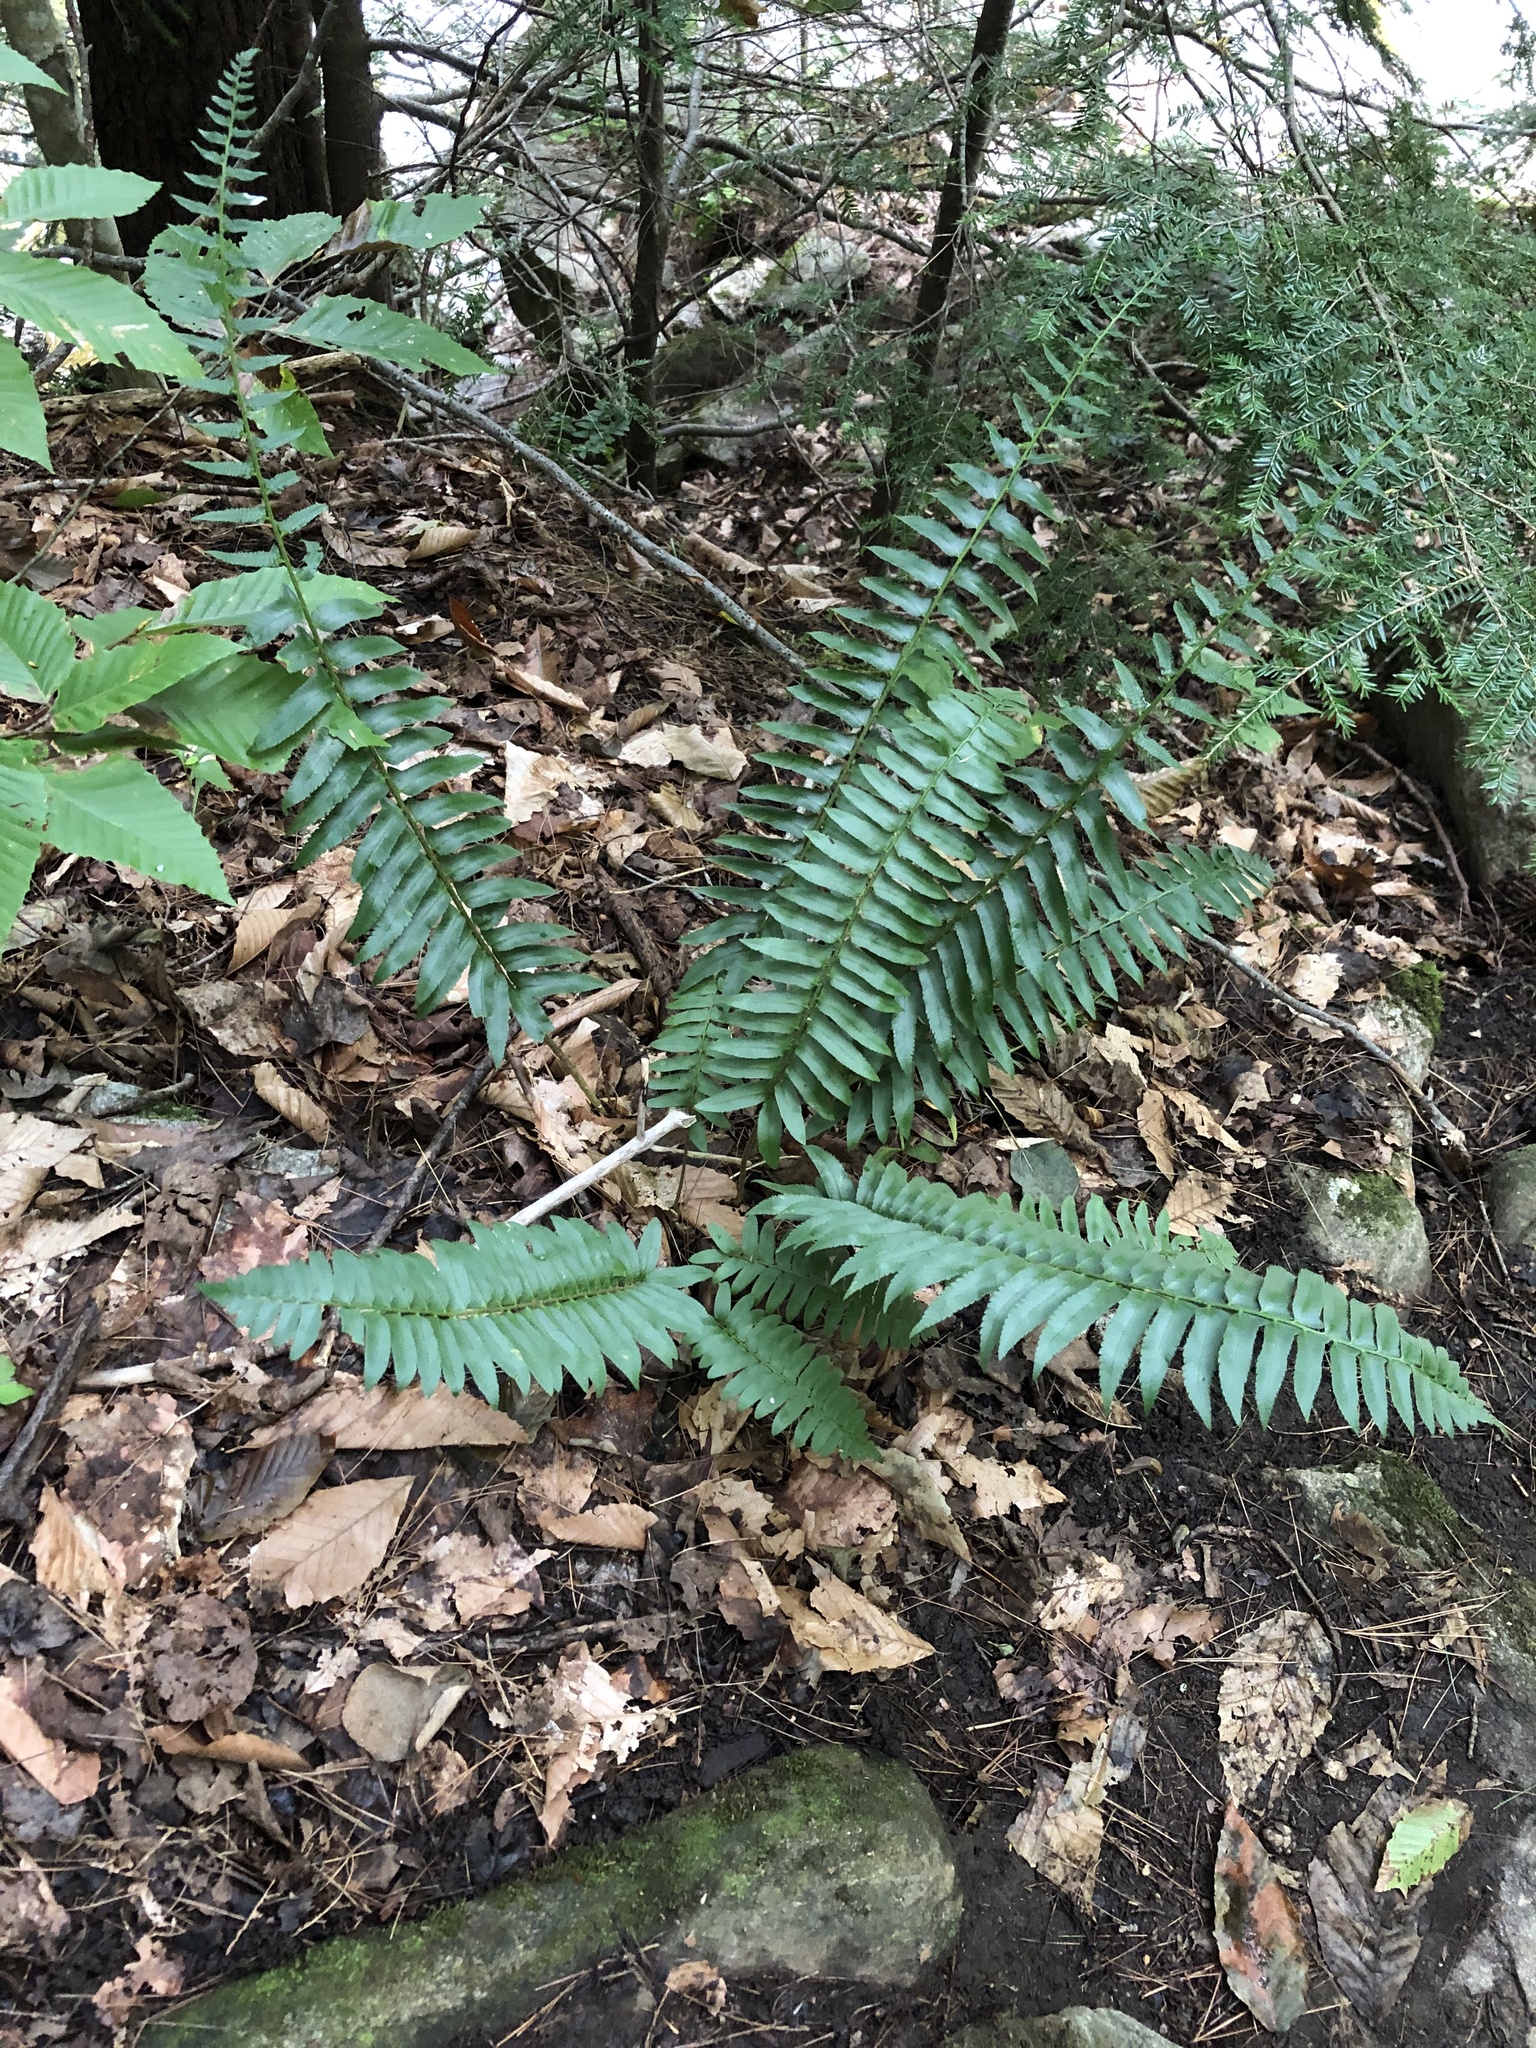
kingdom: Plantae
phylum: Tracheophyta
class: Polypodiopsida
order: Polypodiales
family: Dryopteridaceae
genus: Polystichum
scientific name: Polystichum acrostichoides
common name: Christmas fern
